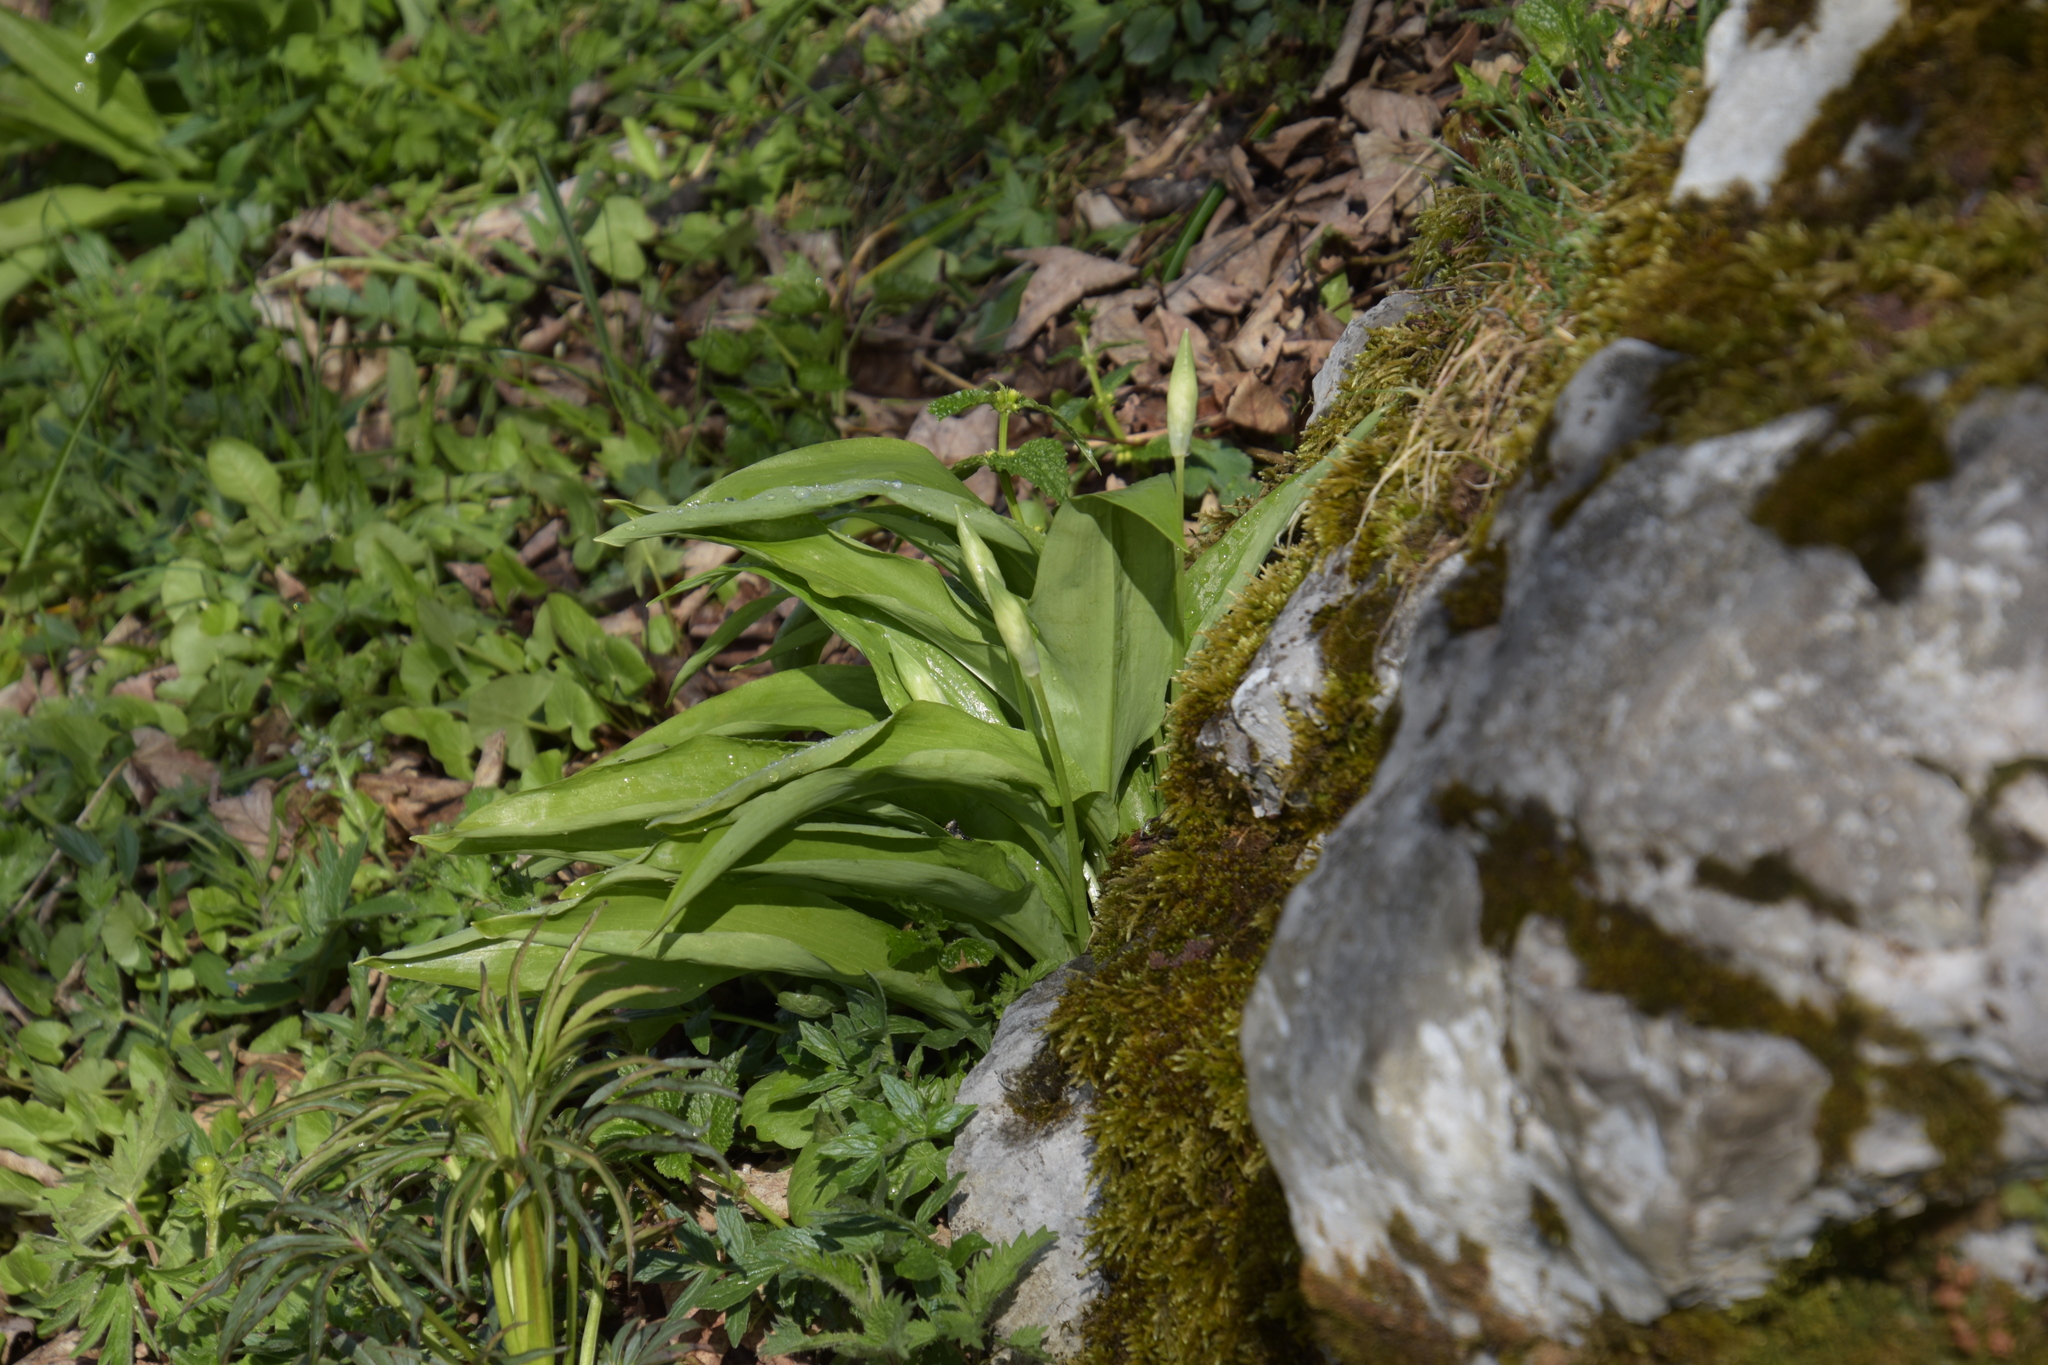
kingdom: Plantae
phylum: Tracheophyta
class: Liliopsida
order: Asparagales
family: Amaryllidaceae
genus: Allium
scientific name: Allium ursinum
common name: Ramsons
